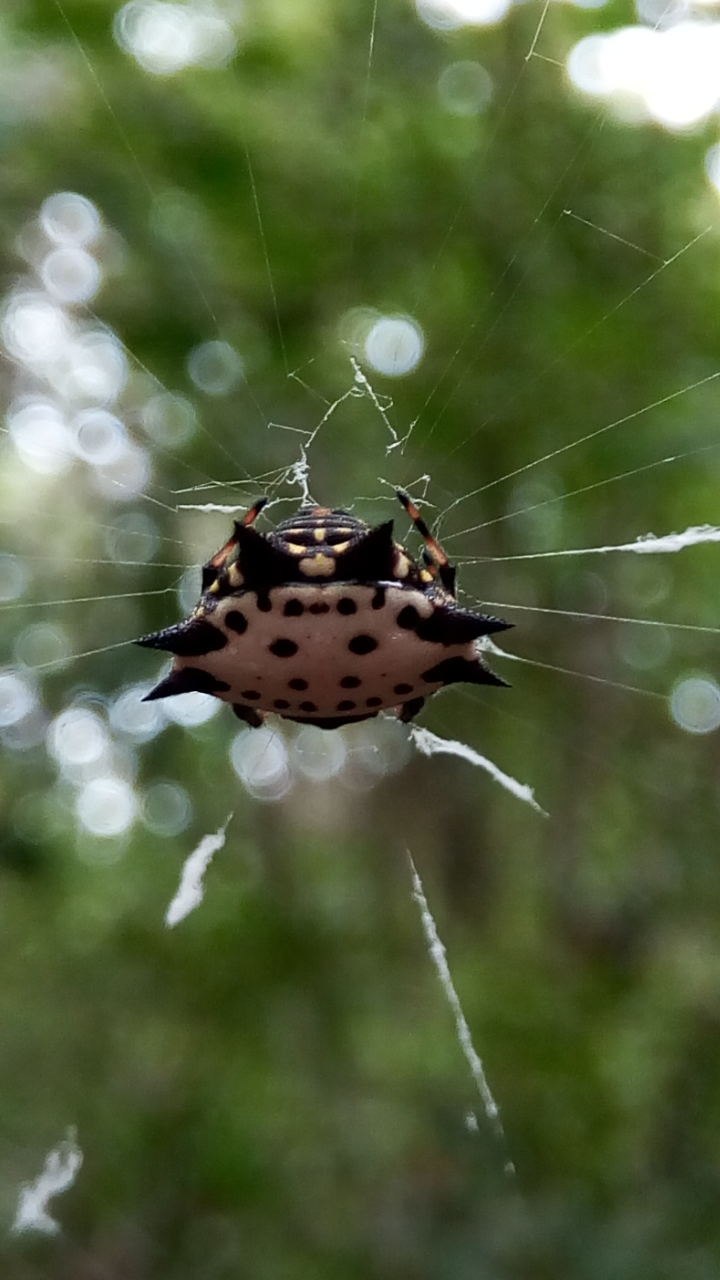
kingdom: Animalia
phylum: Arthropoda
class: Arachnida
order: Araneae
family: Araneidae
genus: Gasteracantha
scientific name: Gasteracantha cancriformis
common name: Orb weavers
